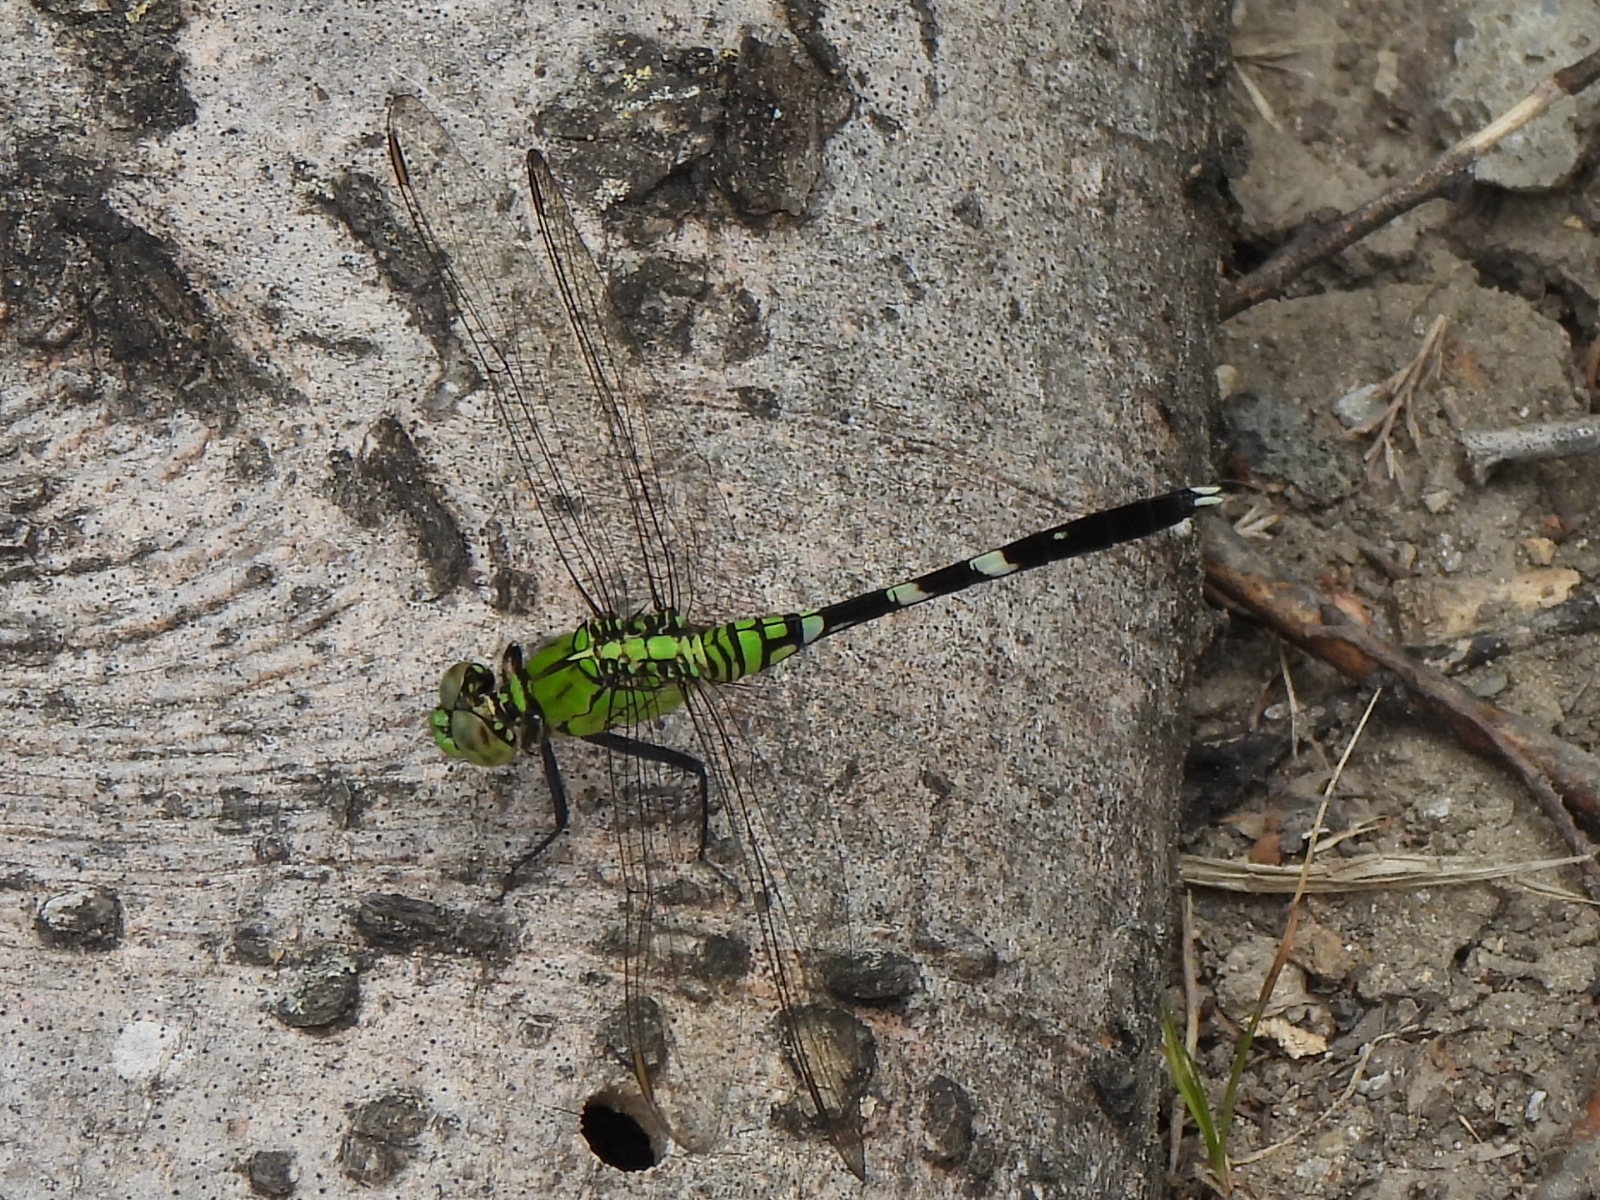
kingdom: Animalia
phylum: Arthropoda
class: Insecta
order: Odonata
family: Libellulidae
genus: Erythemis
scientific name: Erythemis simplicicollis
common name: Eastern pondhawk
